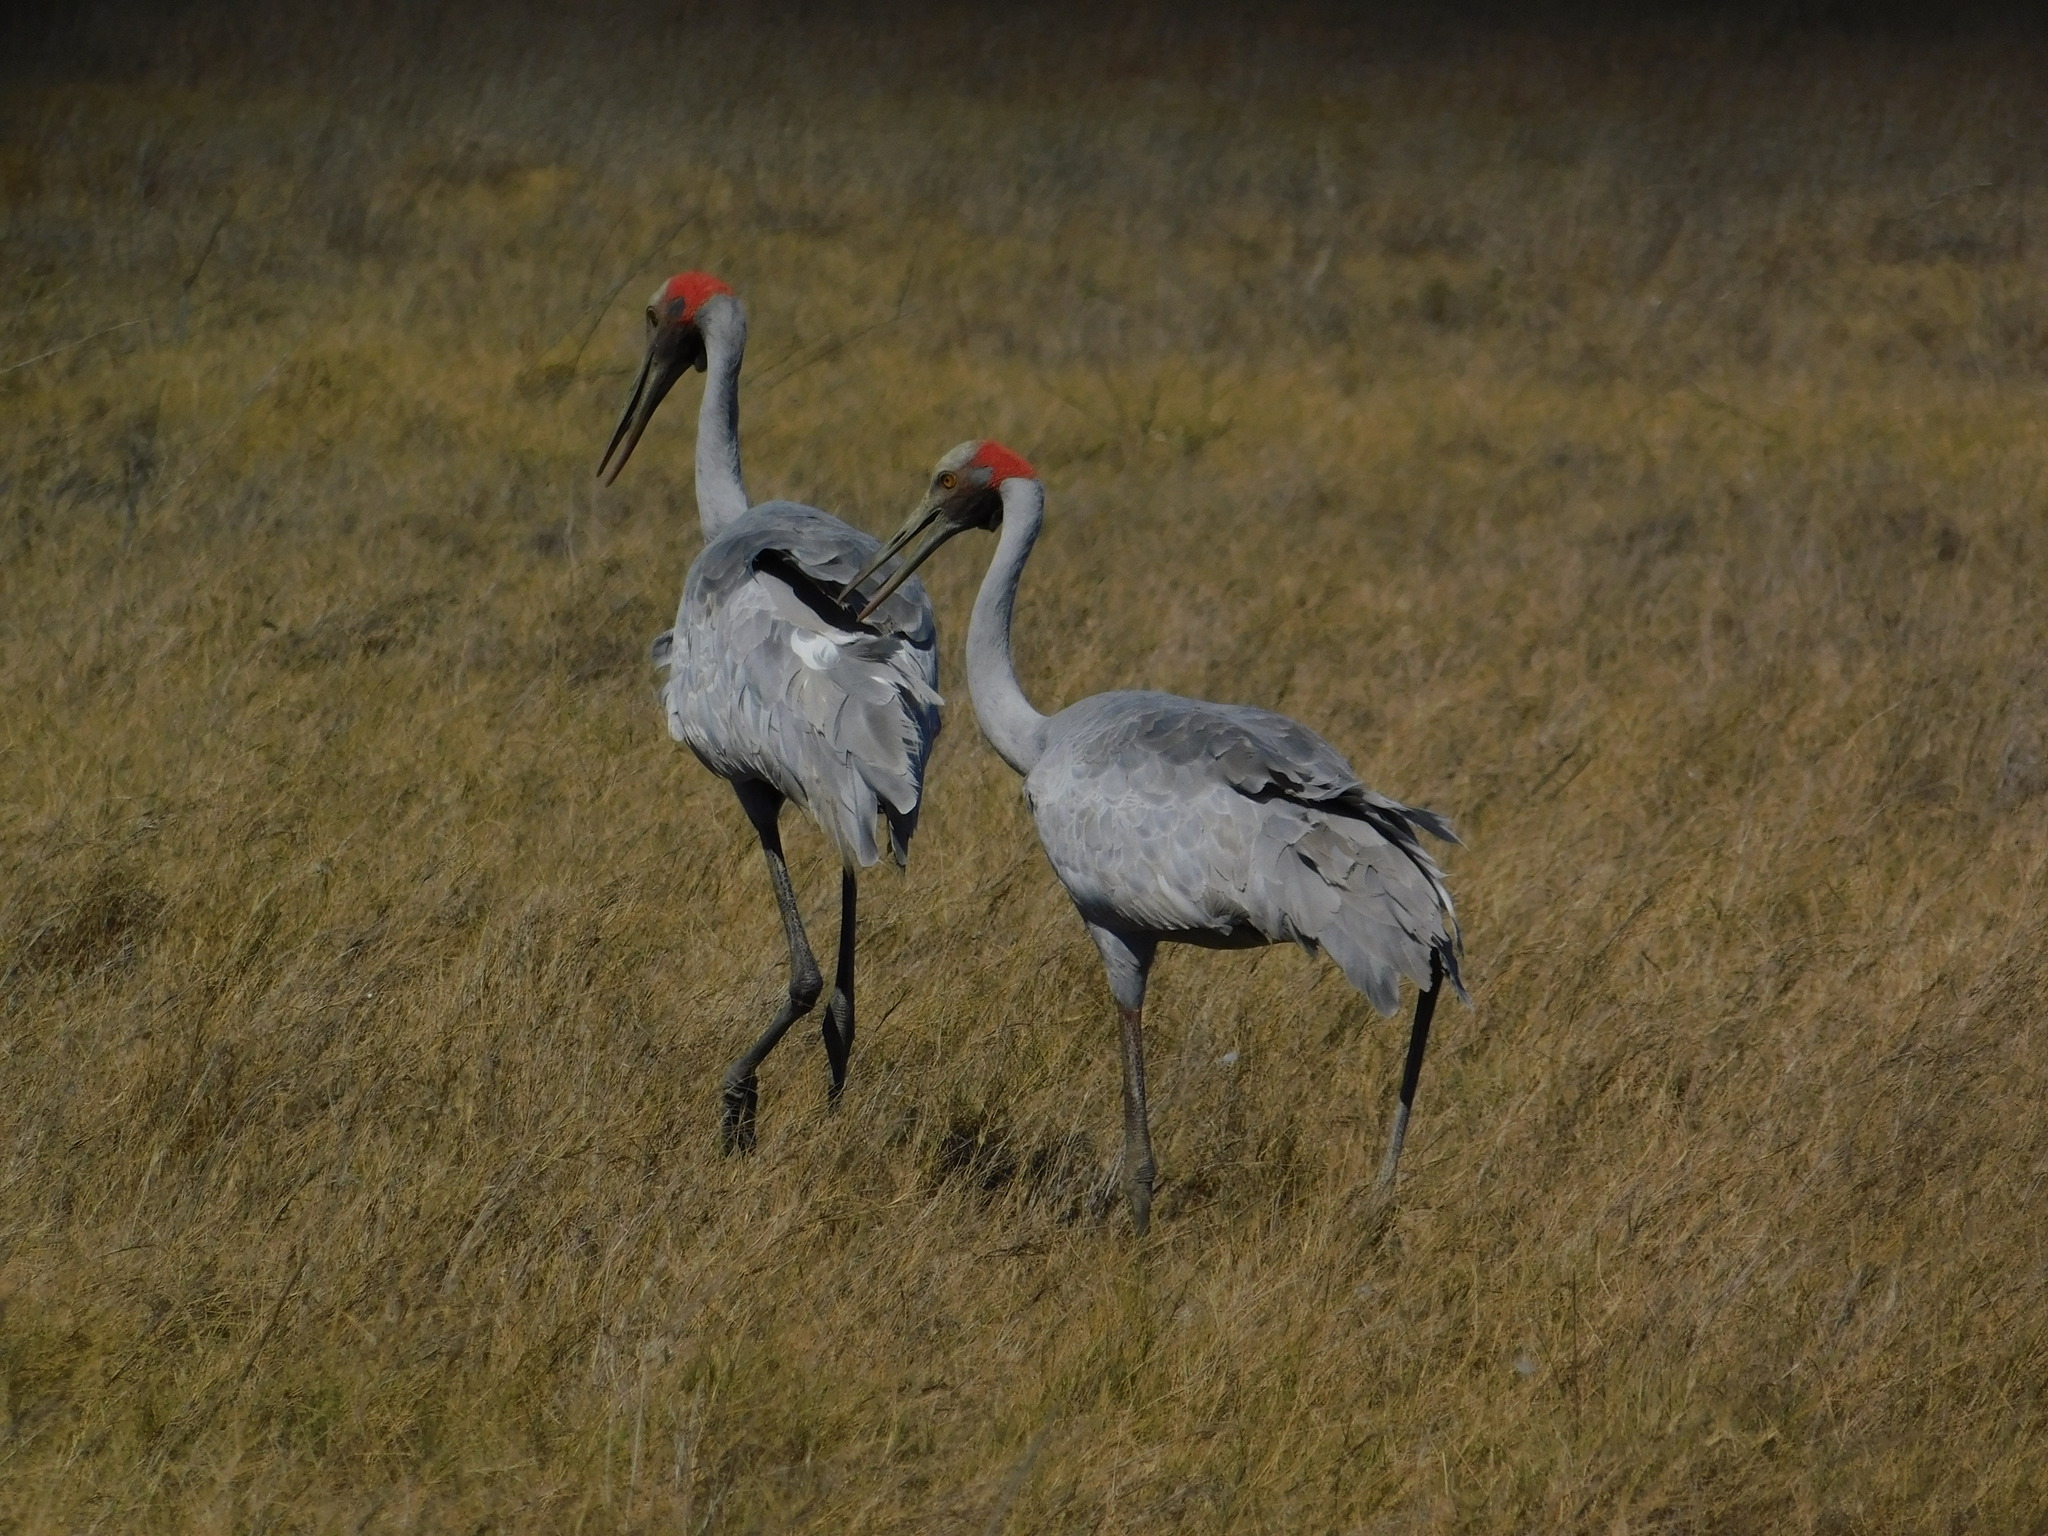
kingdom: Animalia
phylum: Chordata
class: Aves
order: Gruiformes
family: Gruidae
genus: Grus
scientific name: Grus rubicunda
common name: Brolga
